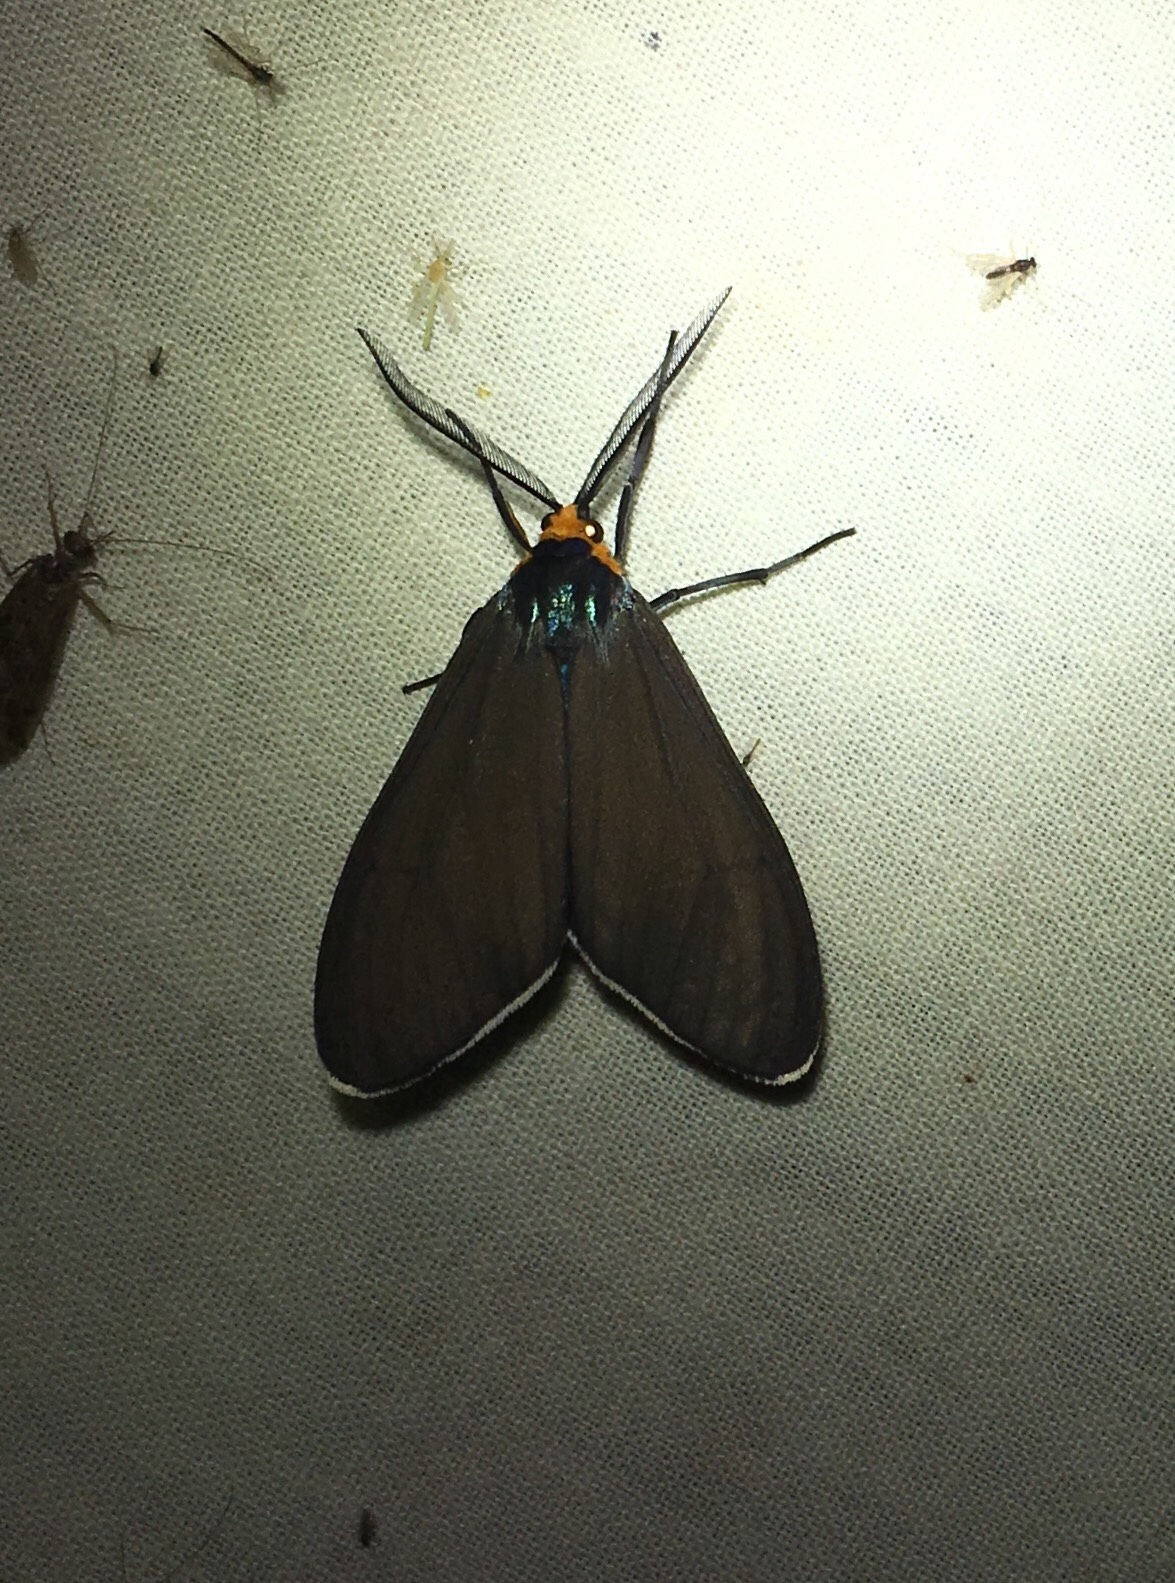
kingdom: Animalia
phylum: Arthropoda
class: Insecta
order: Lepidoptera
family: Erebidae
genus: Ctenucha
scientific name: Ctenucha virginica
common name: Virginia ctenucha moth
